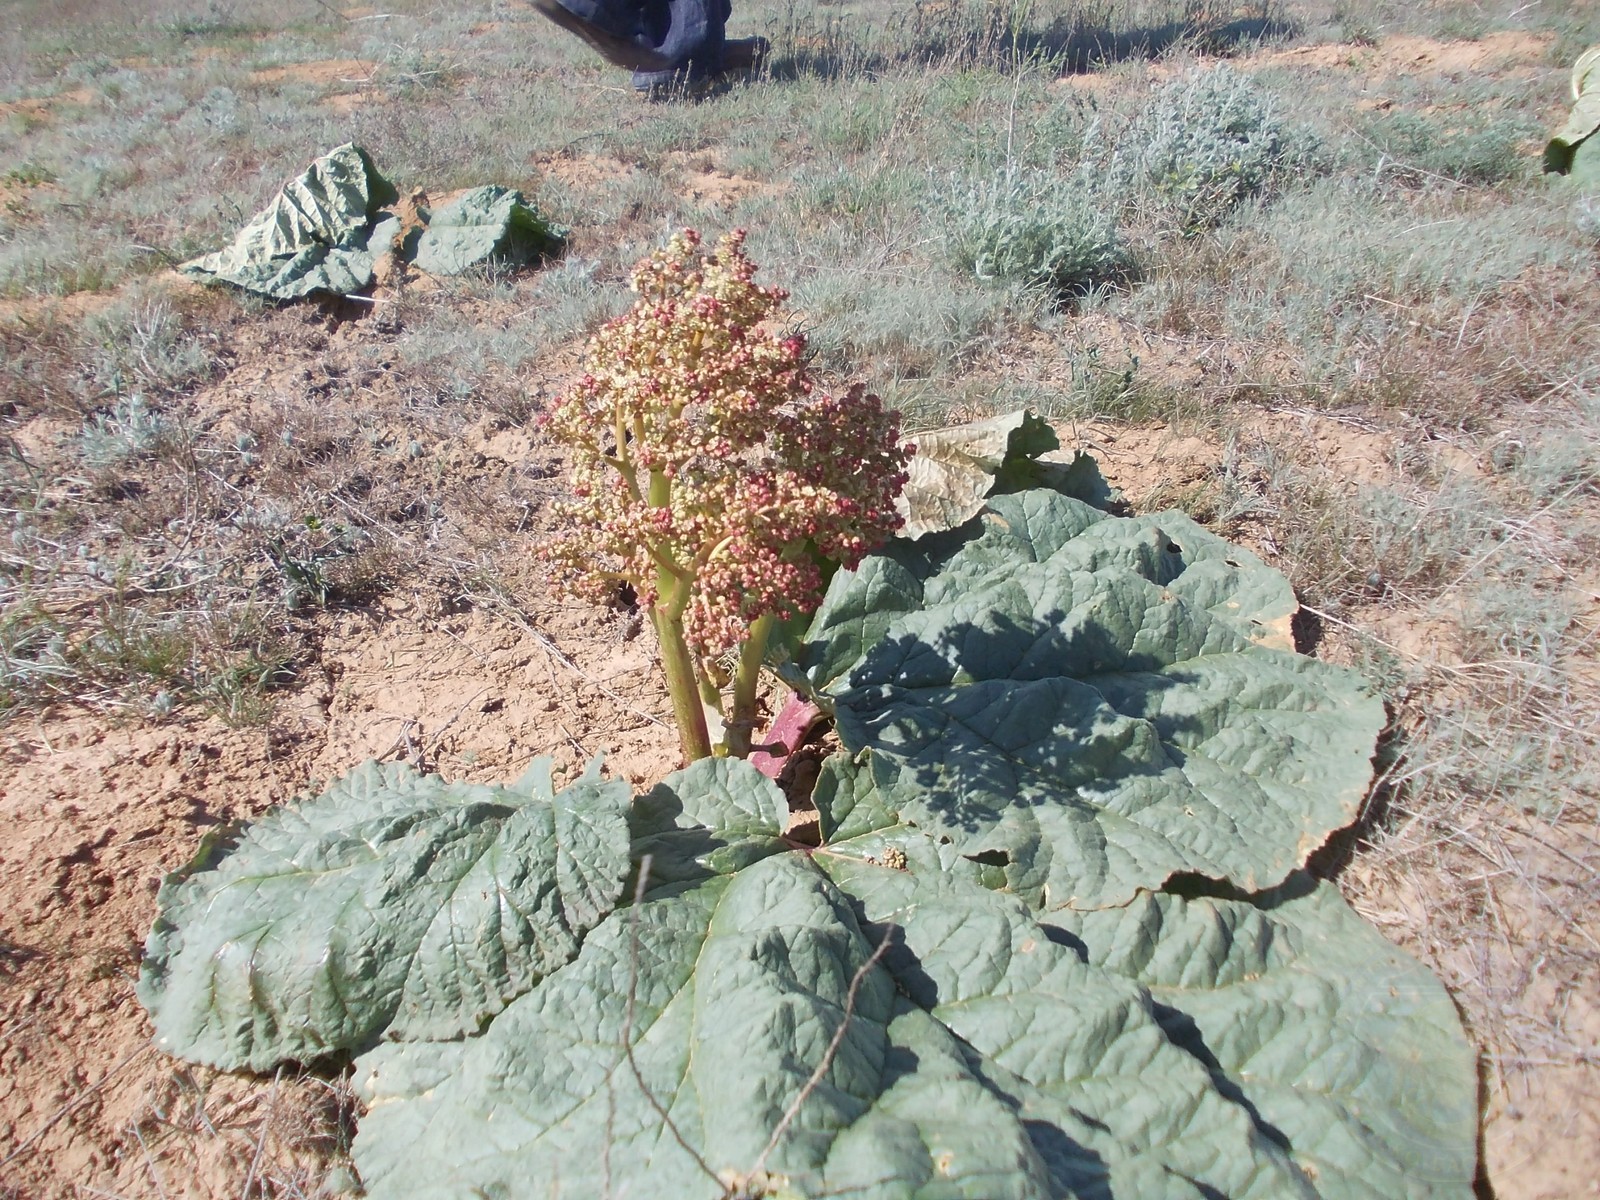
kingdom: Plantae
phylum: Tracheophyta
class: Magnoliopsida
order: Caryophyllales
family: Polygonaceae
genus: Rheum
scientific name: Rheum tataricum
